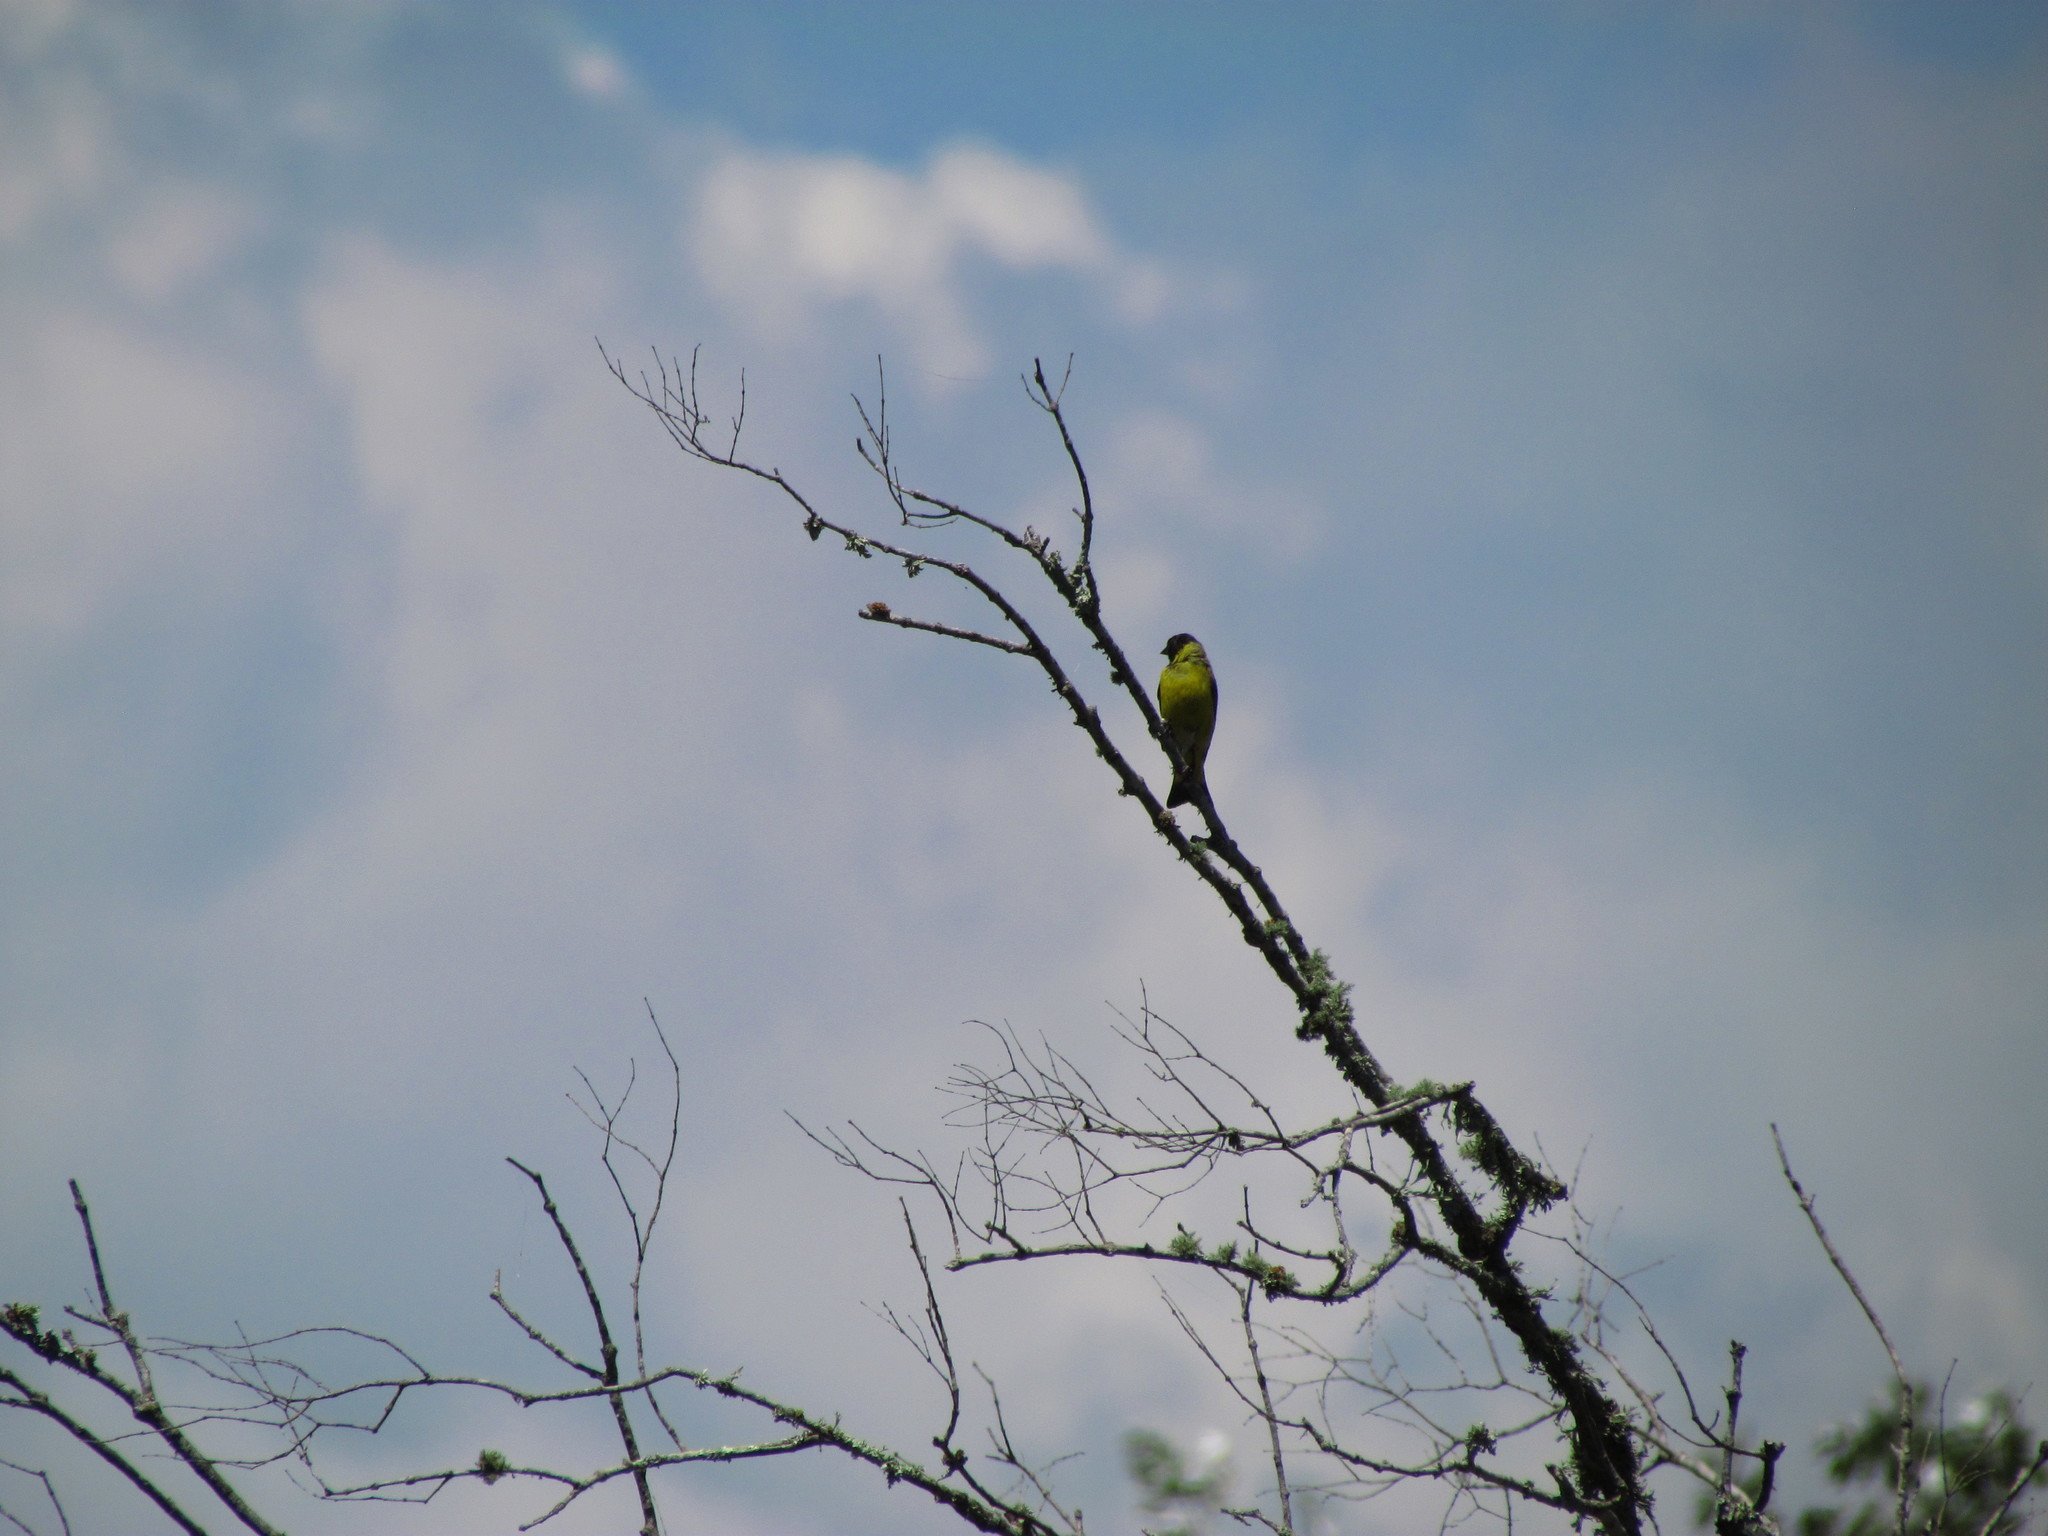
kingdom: Animalia
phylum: Chordata
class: Aves
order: Passeriformes
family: Fringillidae
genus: Spinus
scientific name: Spinus magellanicus
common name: Hooded siskin
